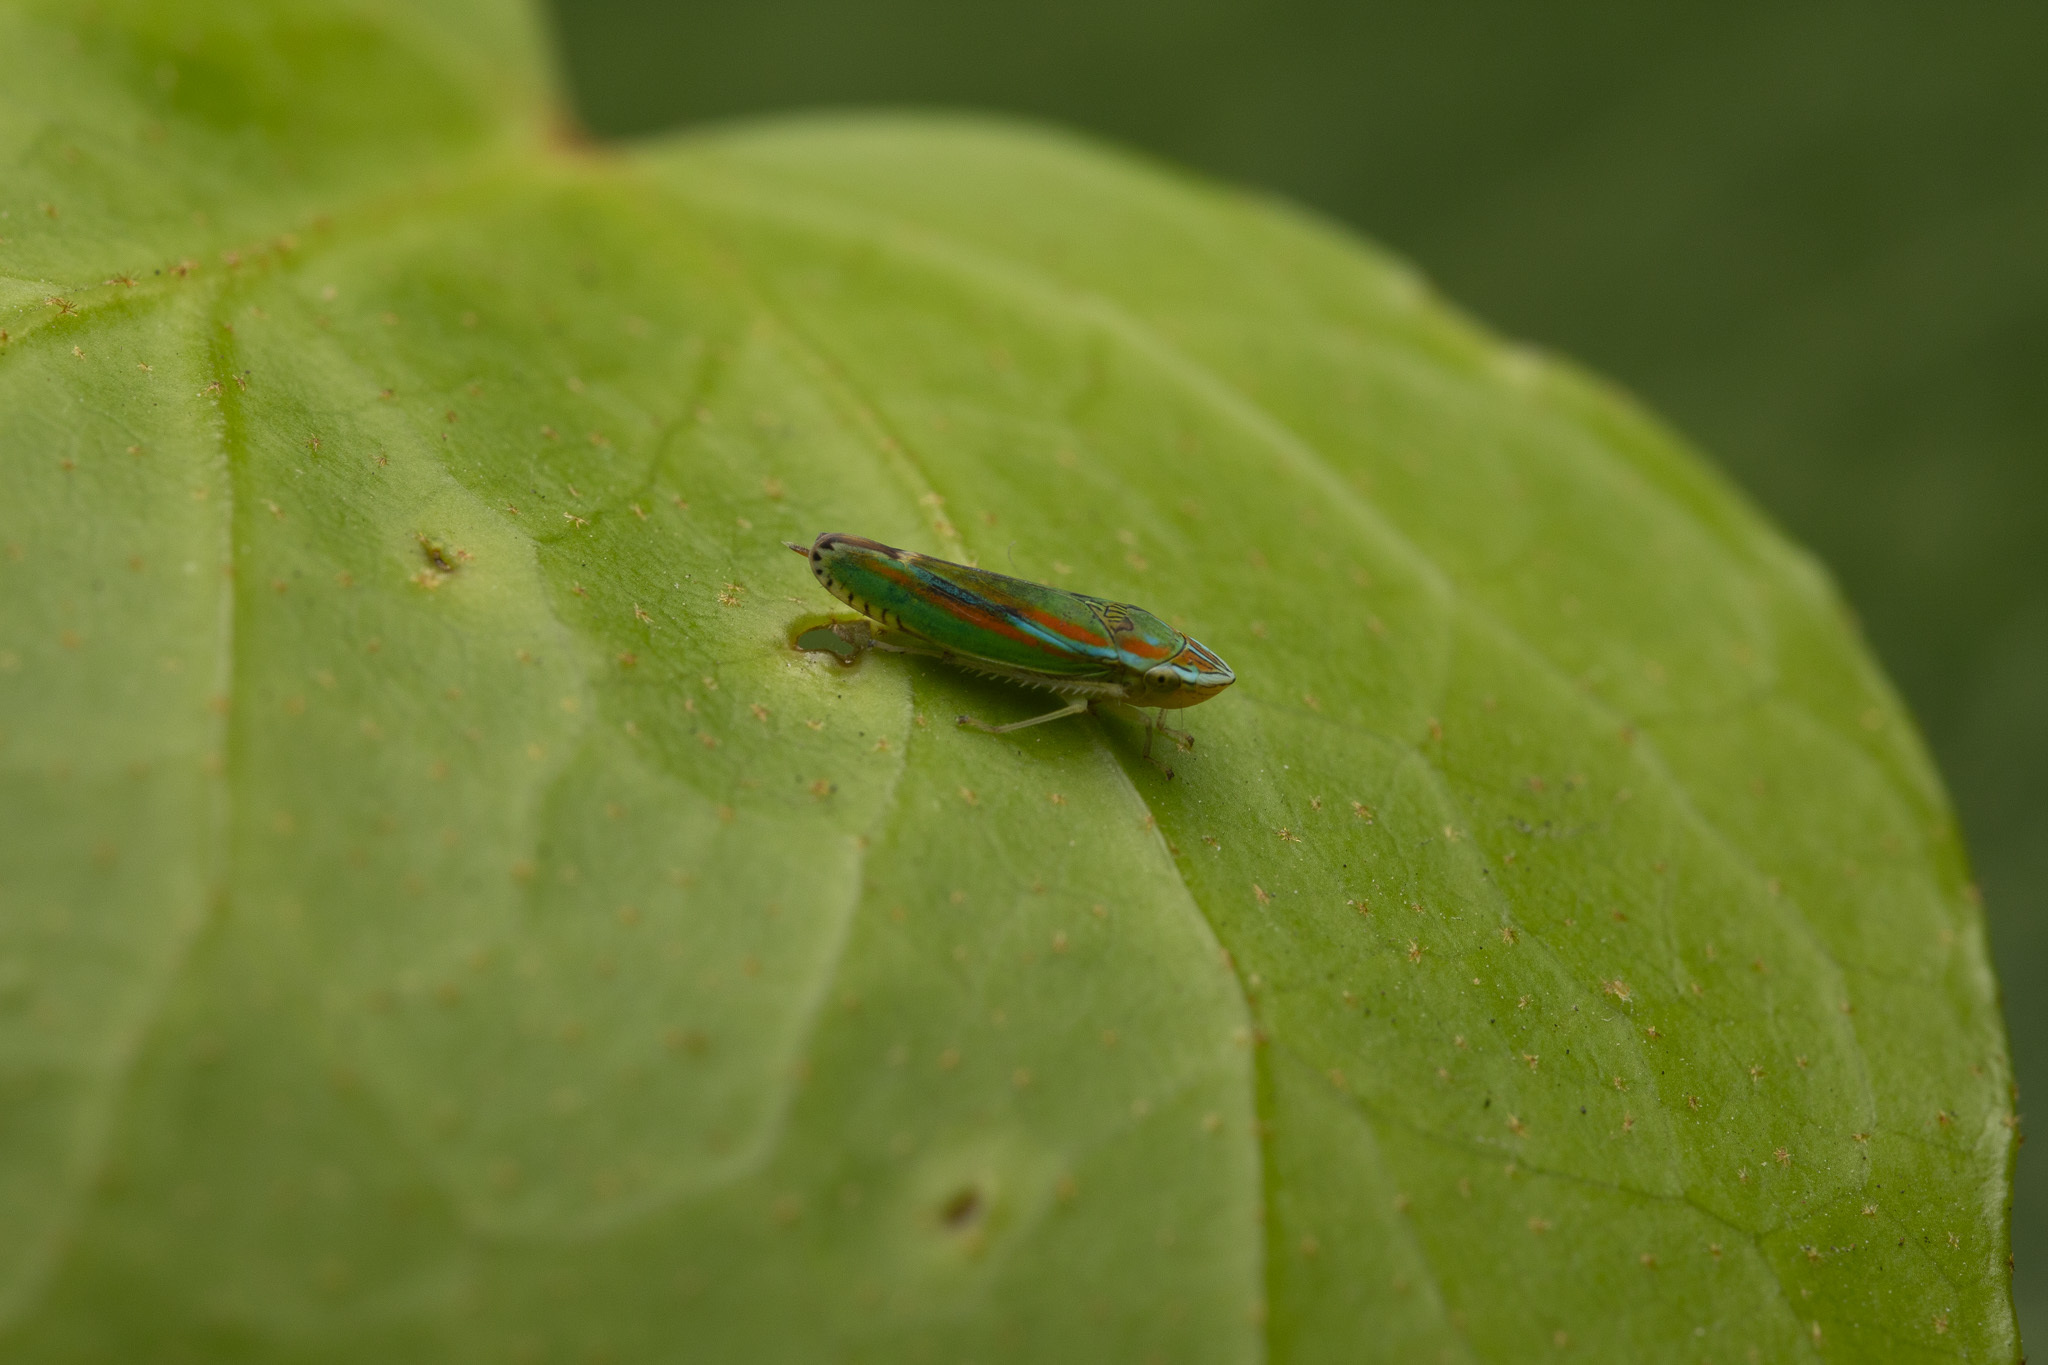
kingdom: Animalia
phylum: Arthropoda
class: Insecta
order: Hemiptera
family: Cicadellidae
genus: Graphocephala
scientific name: Graphocephala versuta
